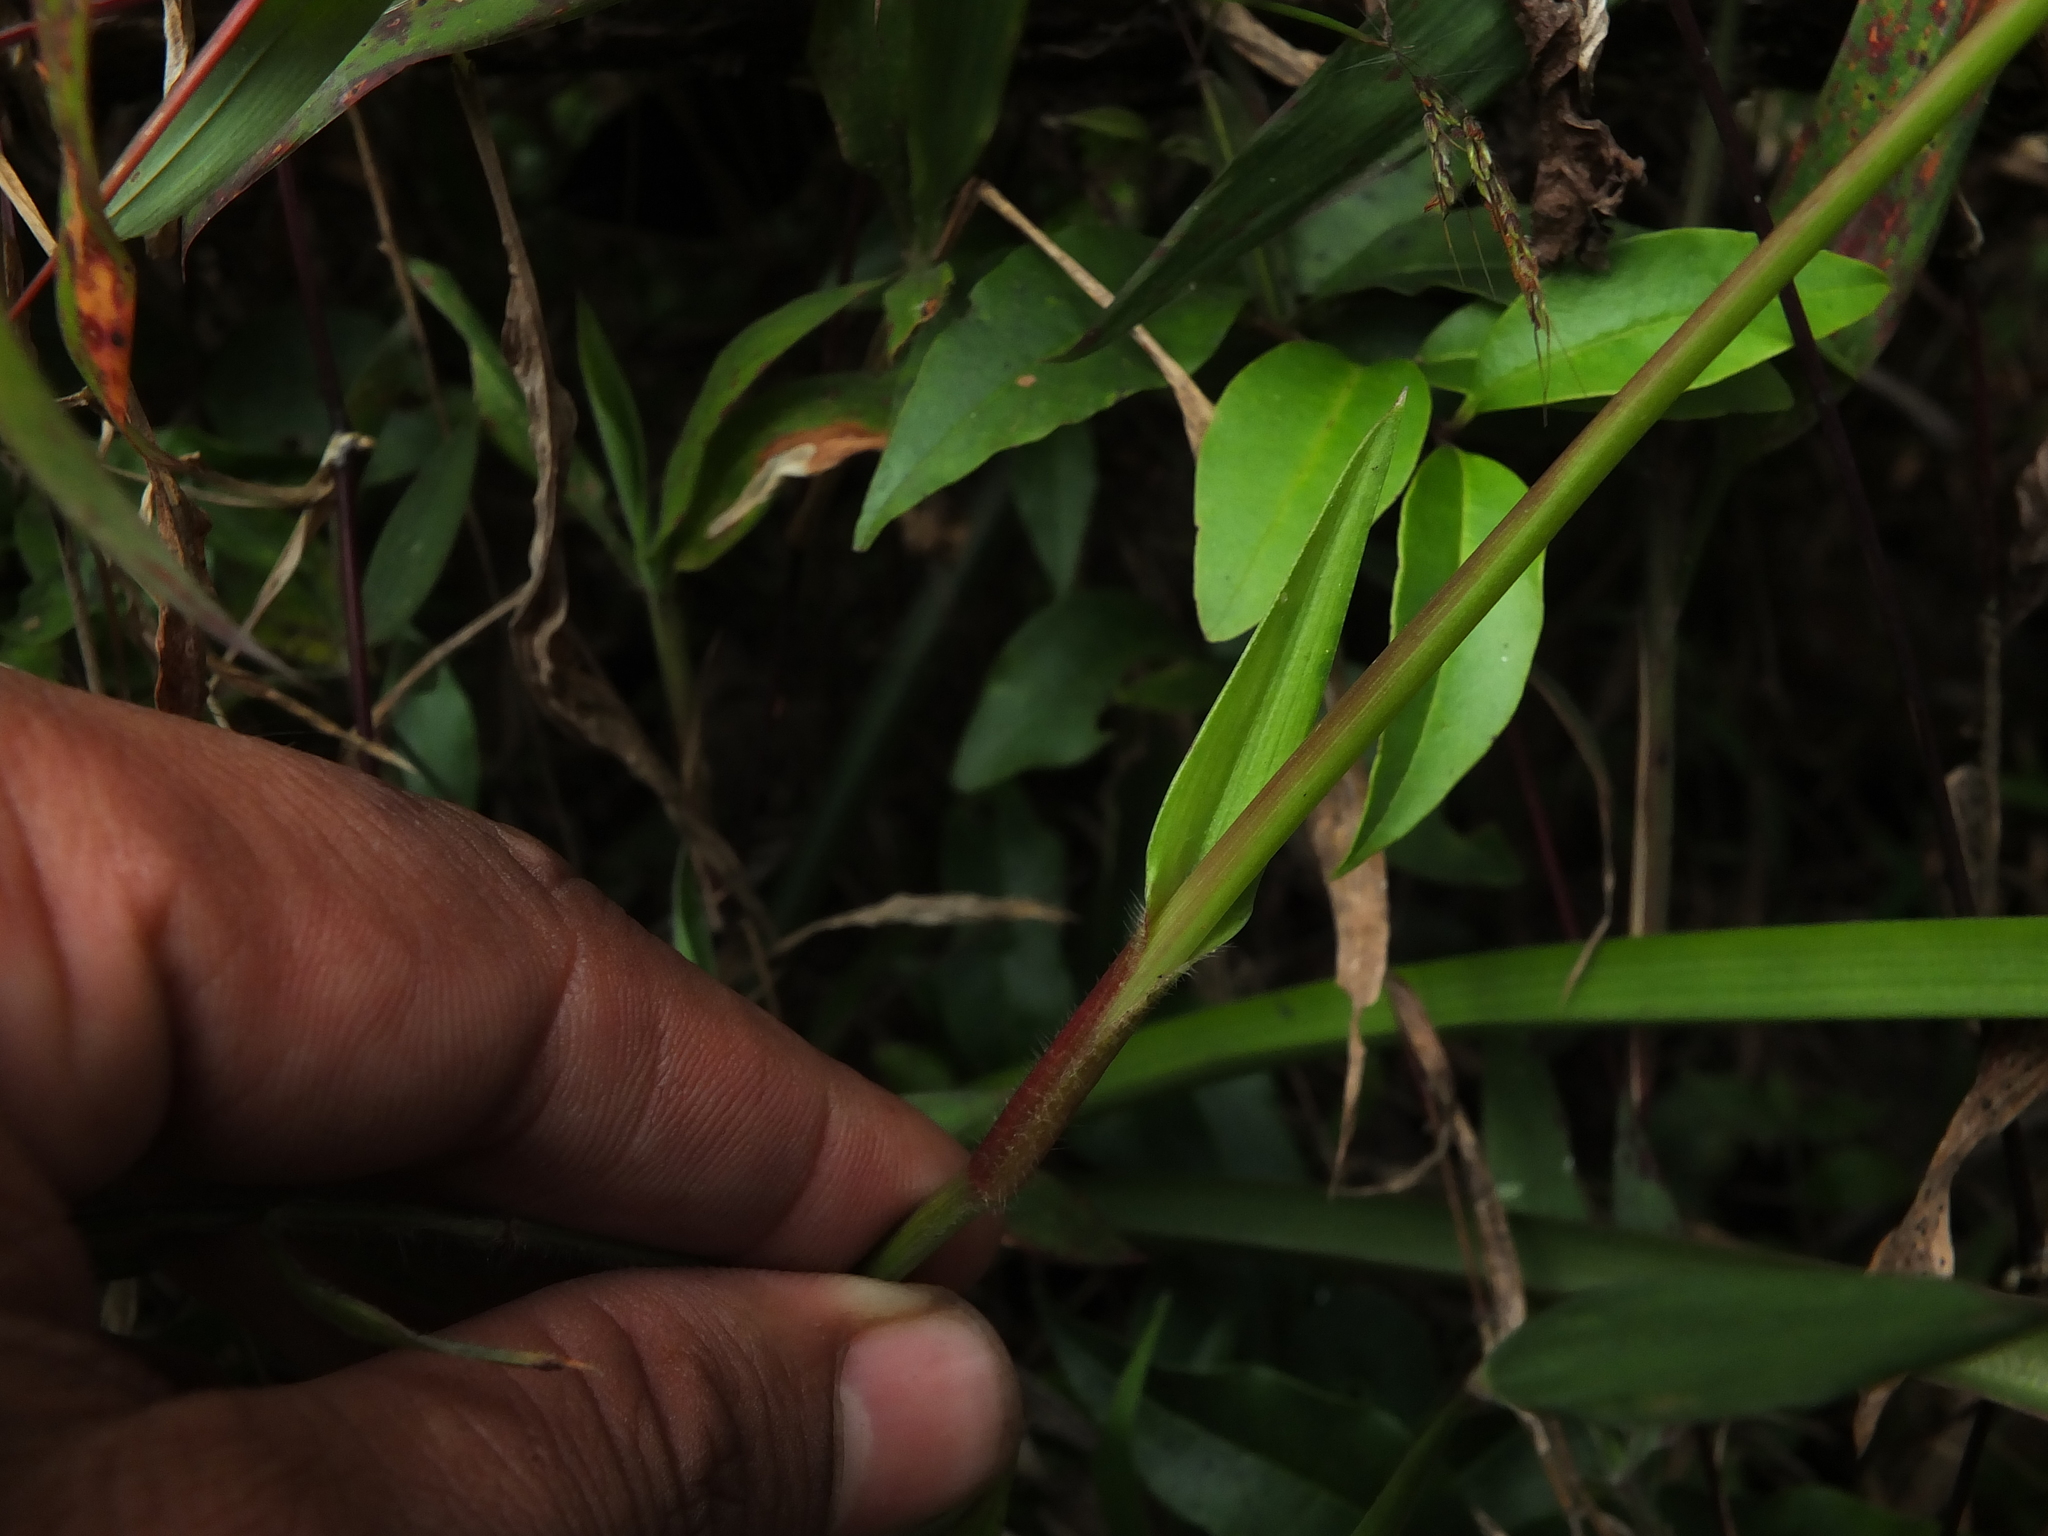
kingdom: Plantae
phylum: Tracheophyta
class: Liliopsida
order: Commelinales
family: Commelinaceae
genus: Murdannia
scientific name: Murdannia simplex
